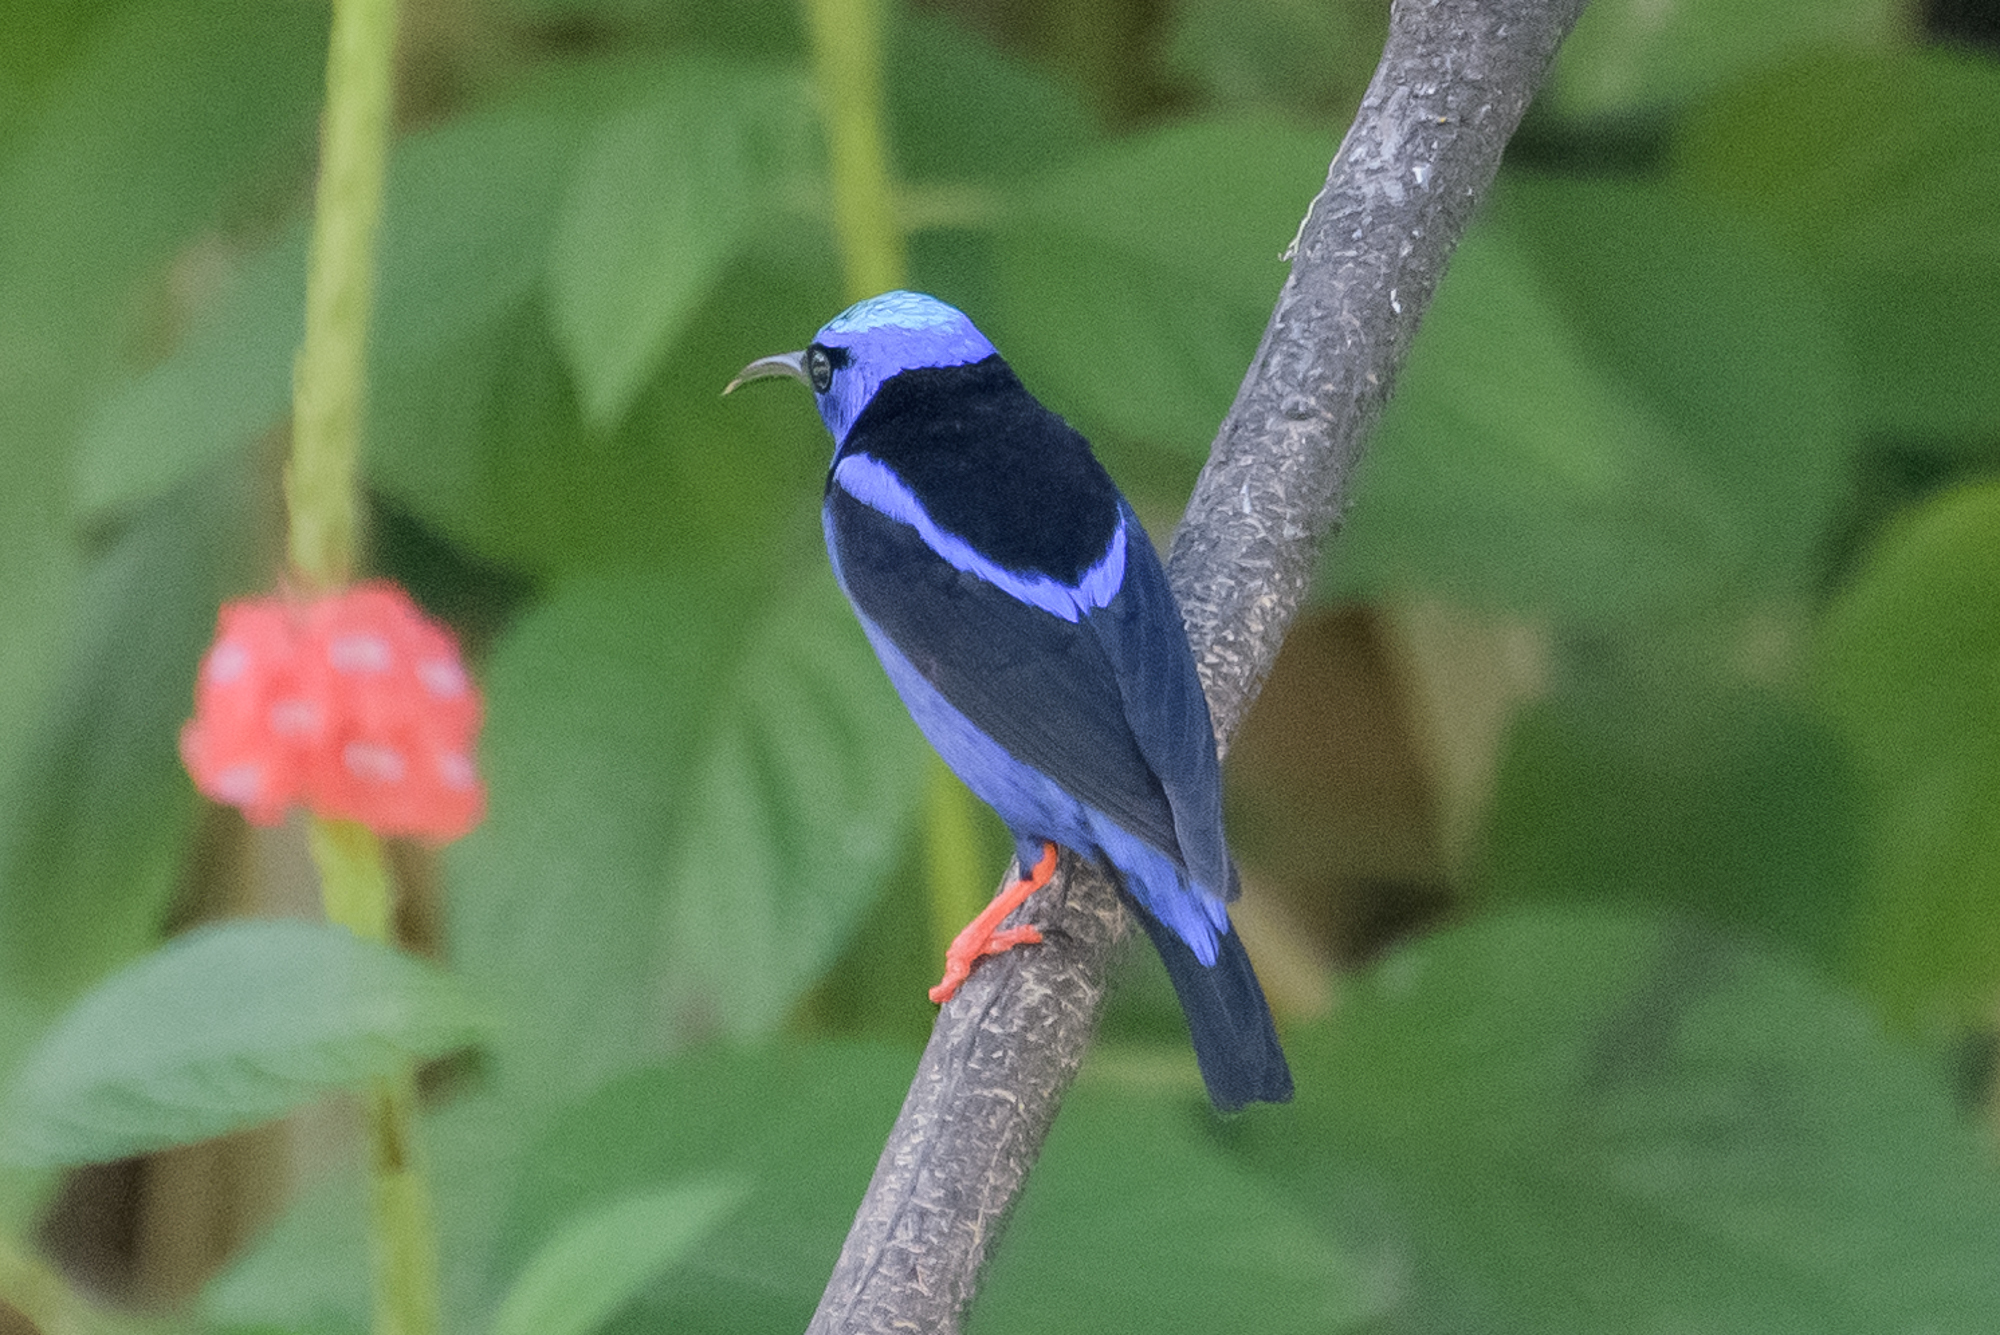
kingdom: Animalia
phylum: Chordata
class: Aves
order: Passeriformes
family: Thraupidae
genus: Cyanerpes
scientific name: Cyanerpes cyaneus
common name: Red-legged honeycreeper
